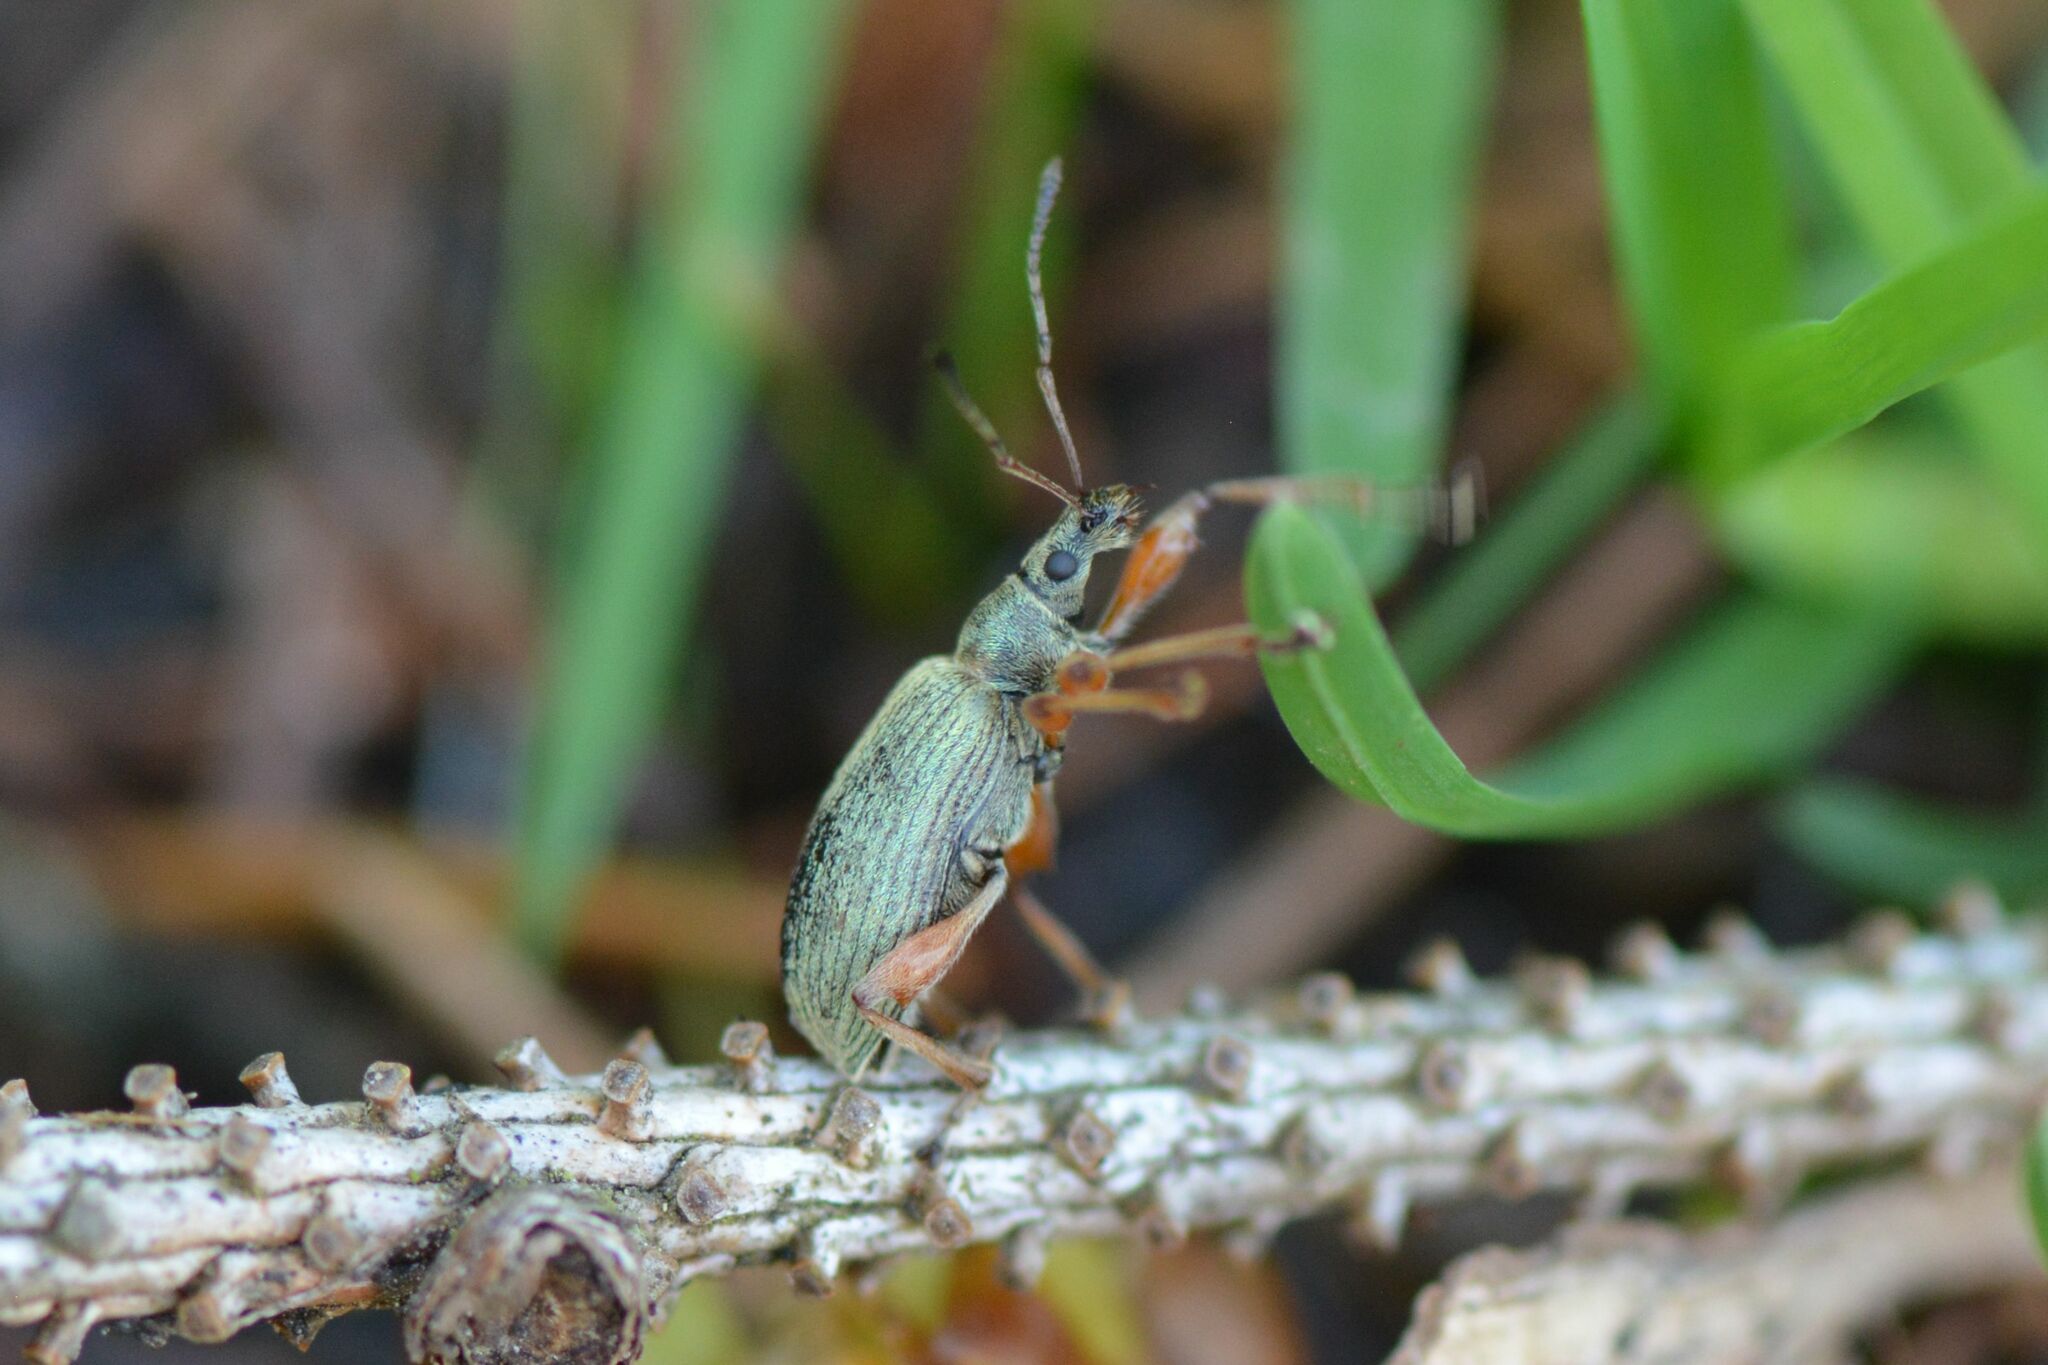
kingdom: Animalia
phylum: Arthropoda
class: Insecta
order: Coleoptera
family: Curculionidae
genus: Phyllobius
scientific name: Phyllobius glaucus
